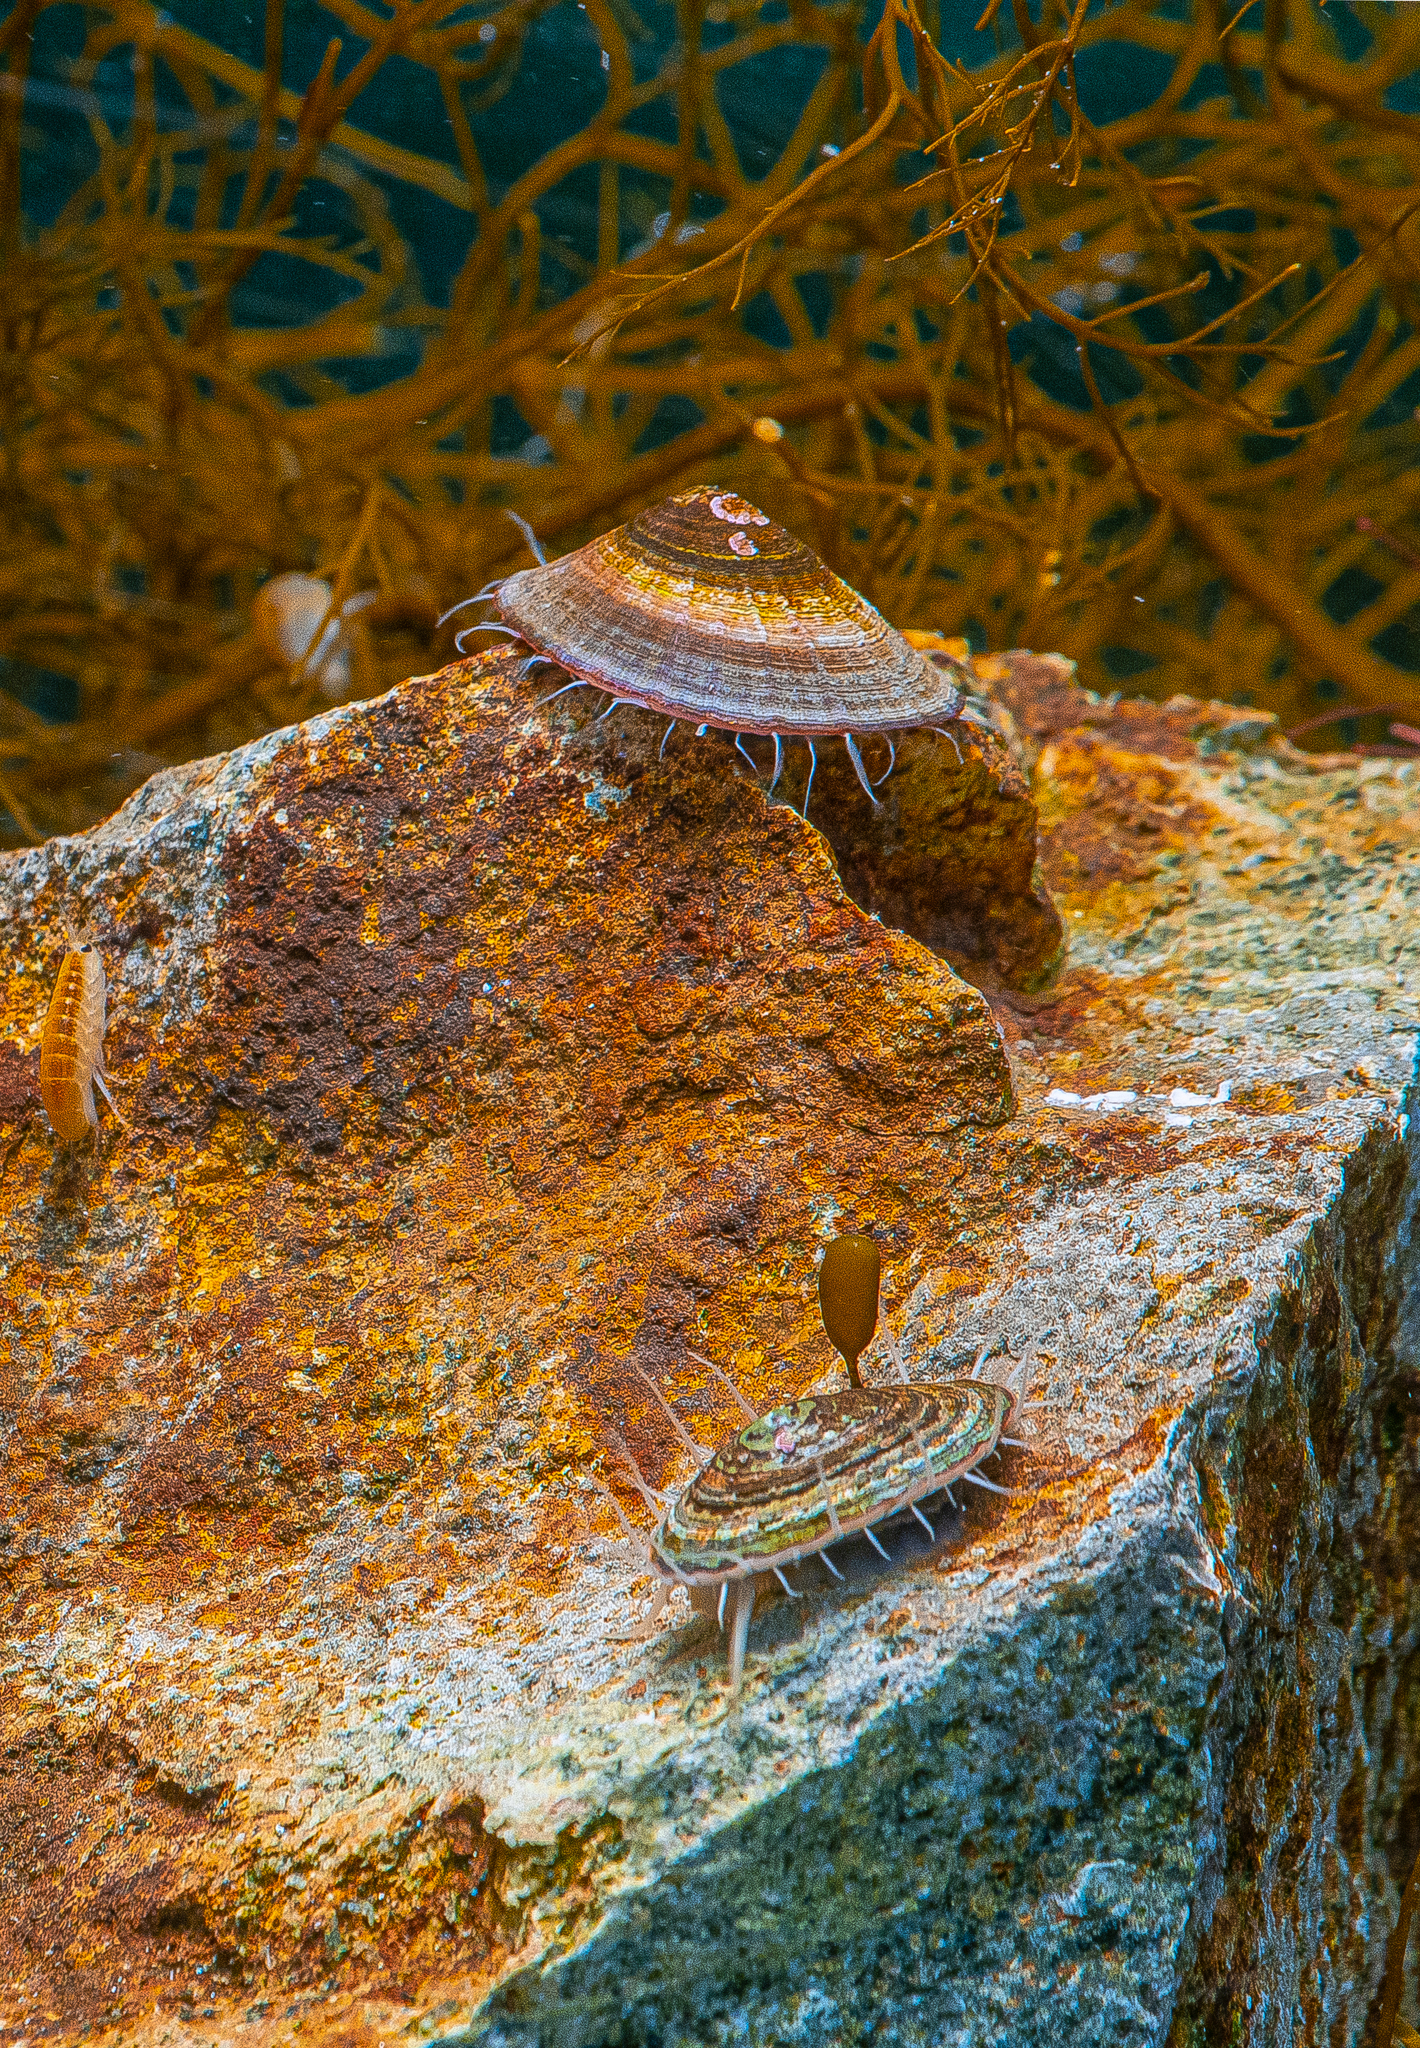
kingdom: Animalia
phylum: Mollusca
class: Gastropoda
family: Nacellidae
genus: Nacella
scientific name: Nacella concinna
